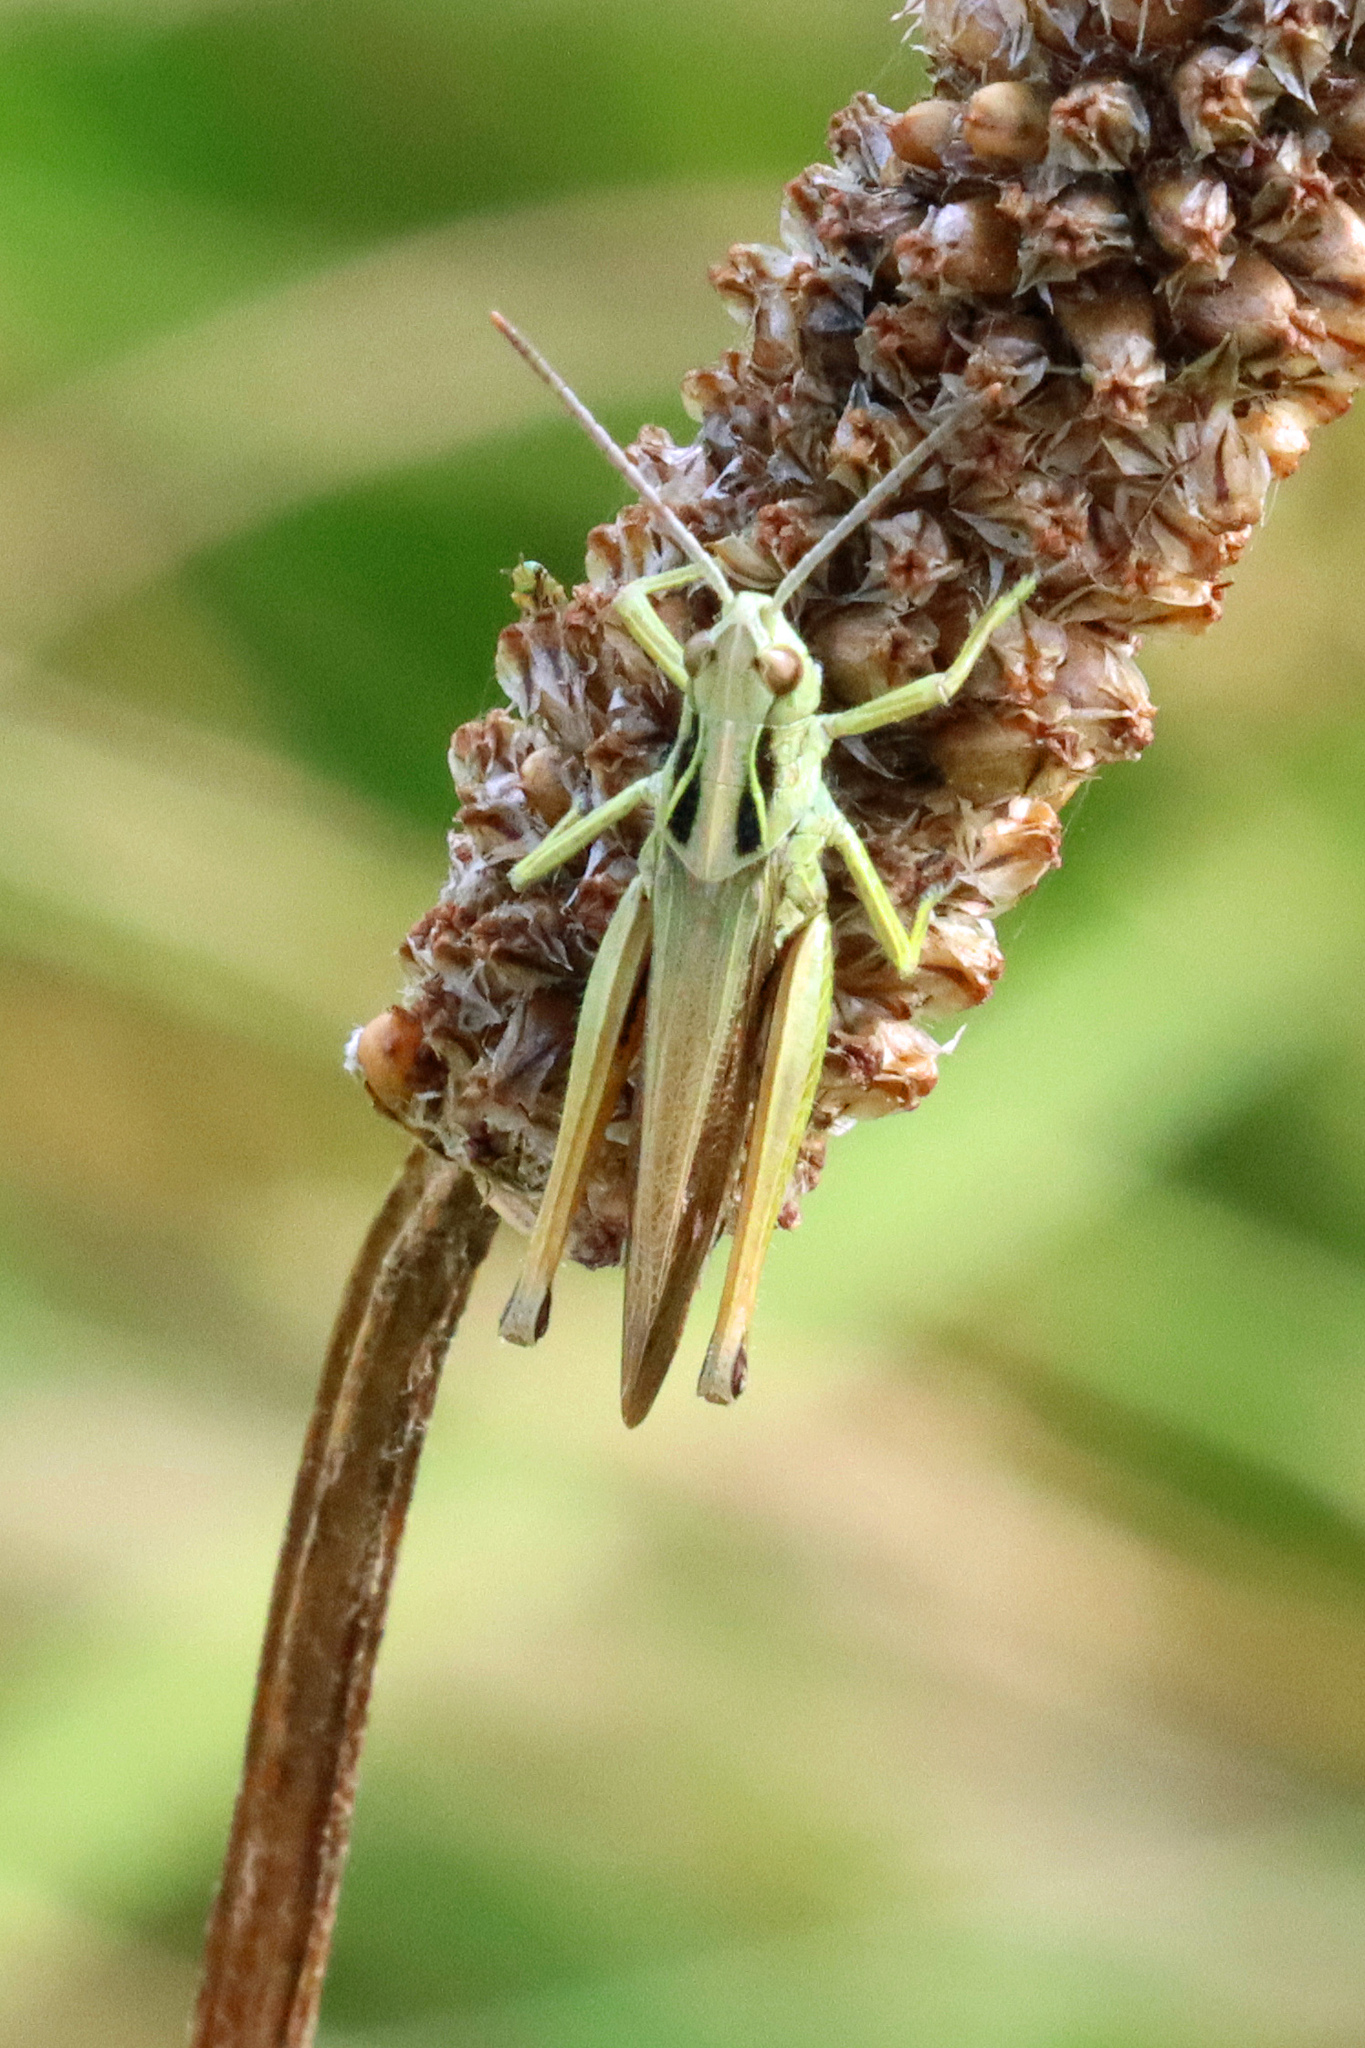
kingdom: Animalia
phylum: Arthropoda
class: Insecta
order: Orthoptera
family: Acrididae
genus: Omocestus
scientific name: Omocestus viridulus
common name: Common green grasshopper
